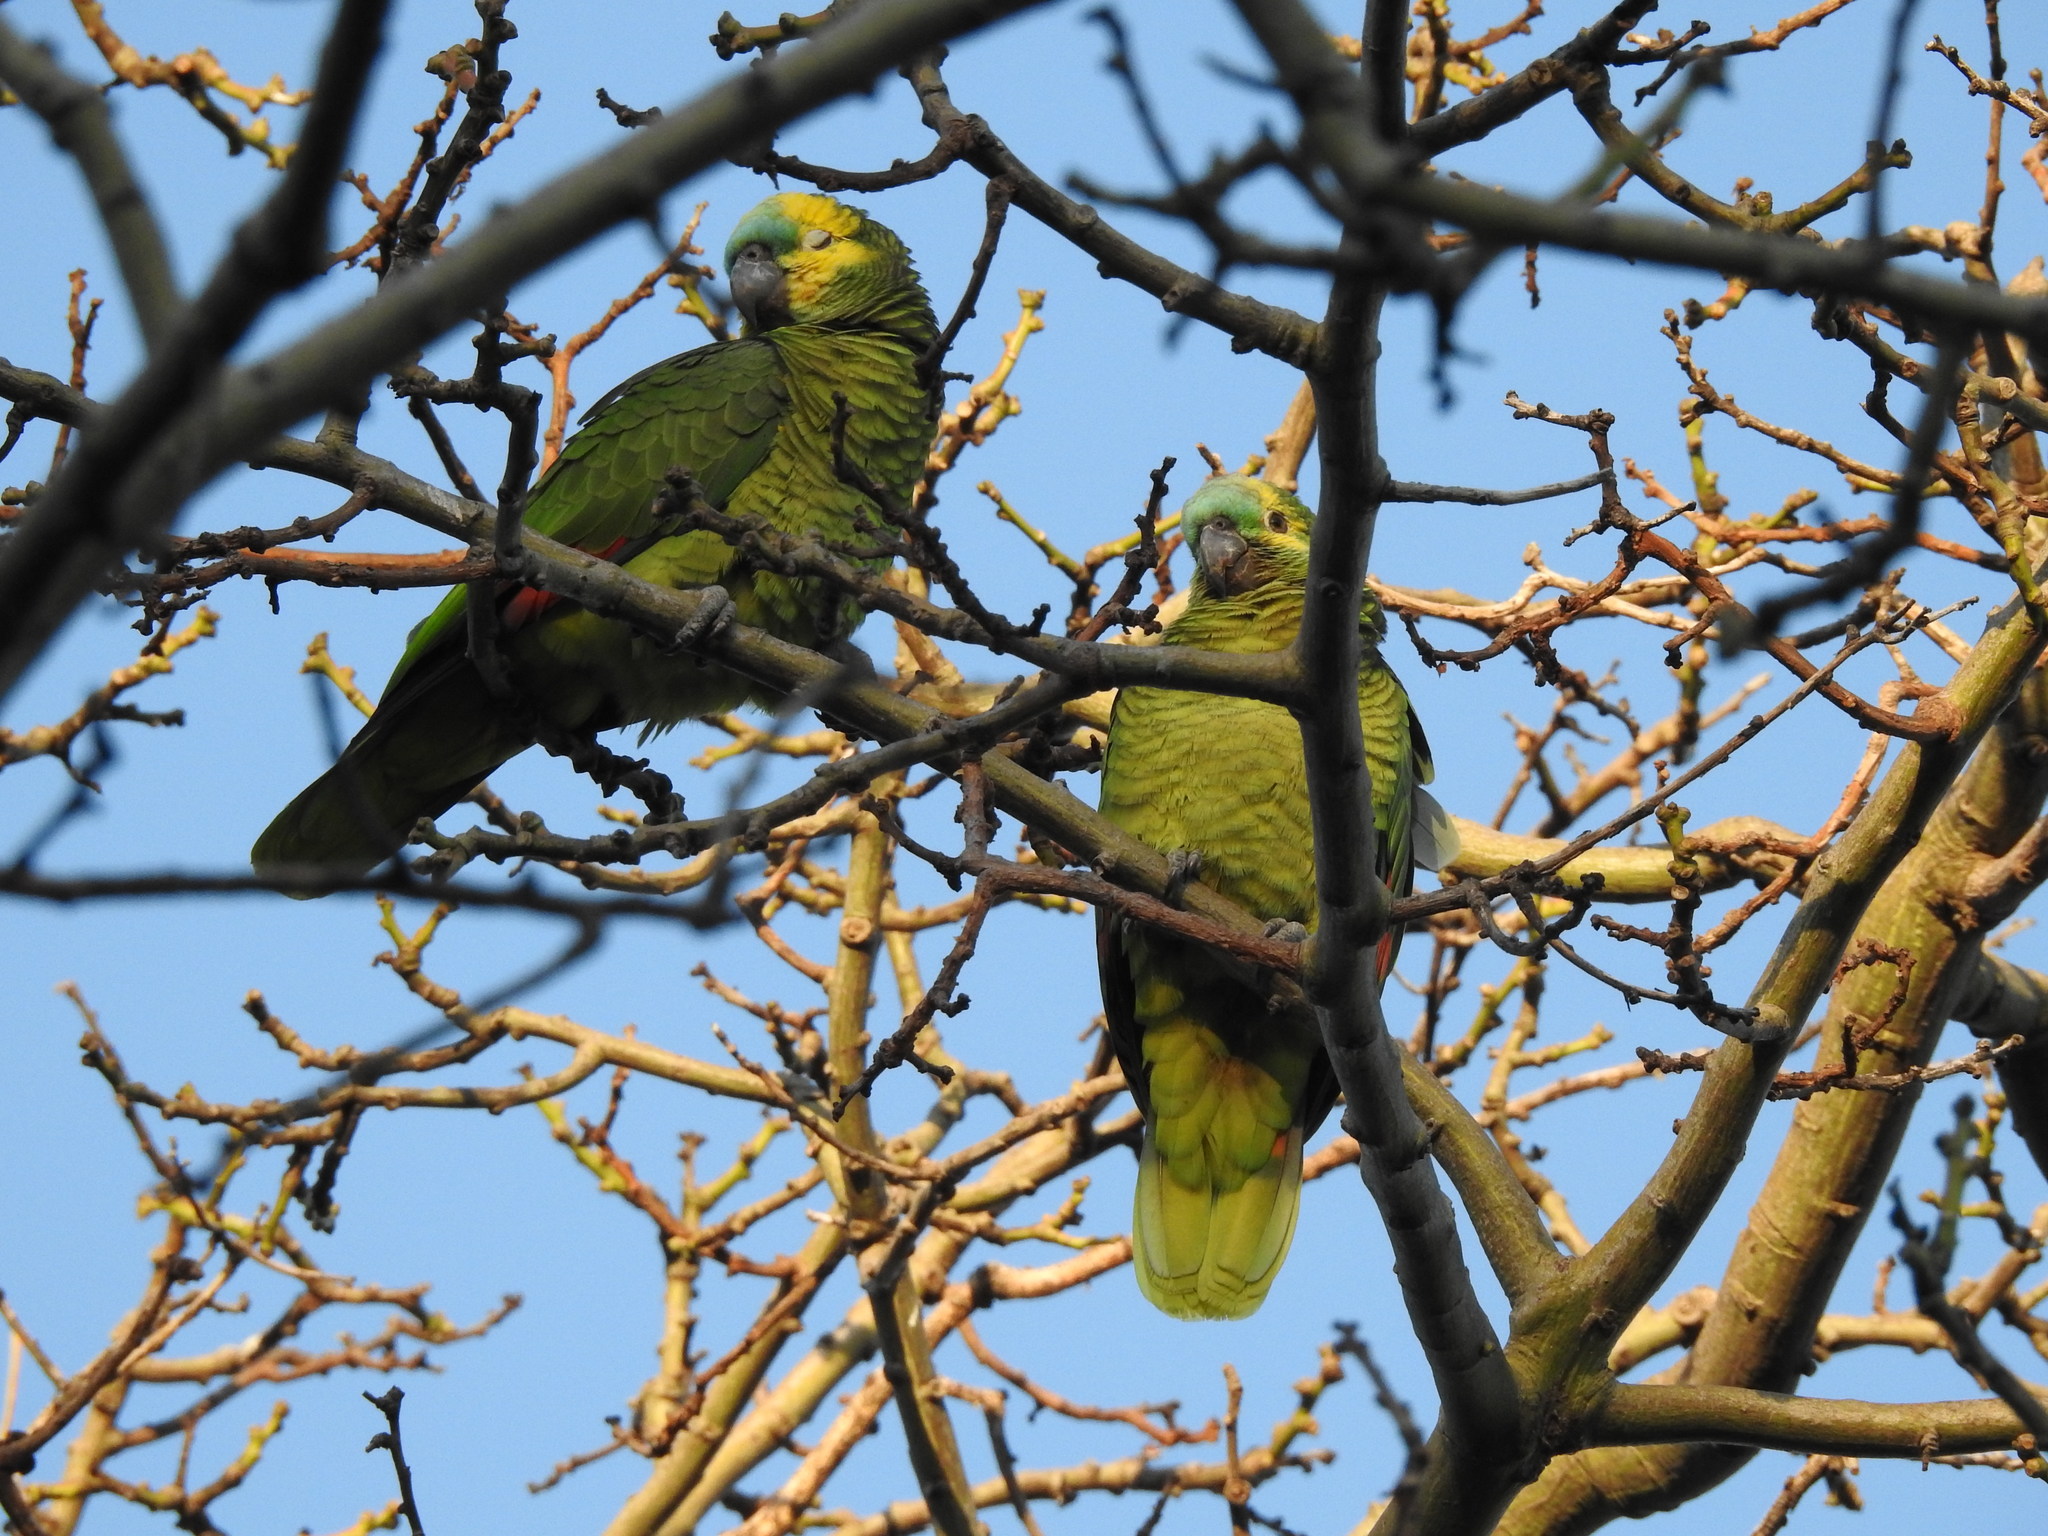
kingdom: Animalia
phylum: Chordata
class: Aves
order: Psittaciformes
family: Psittacidae
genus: Amazona
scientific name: Amazona aestiva
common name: Turquoise-fronted amazon
